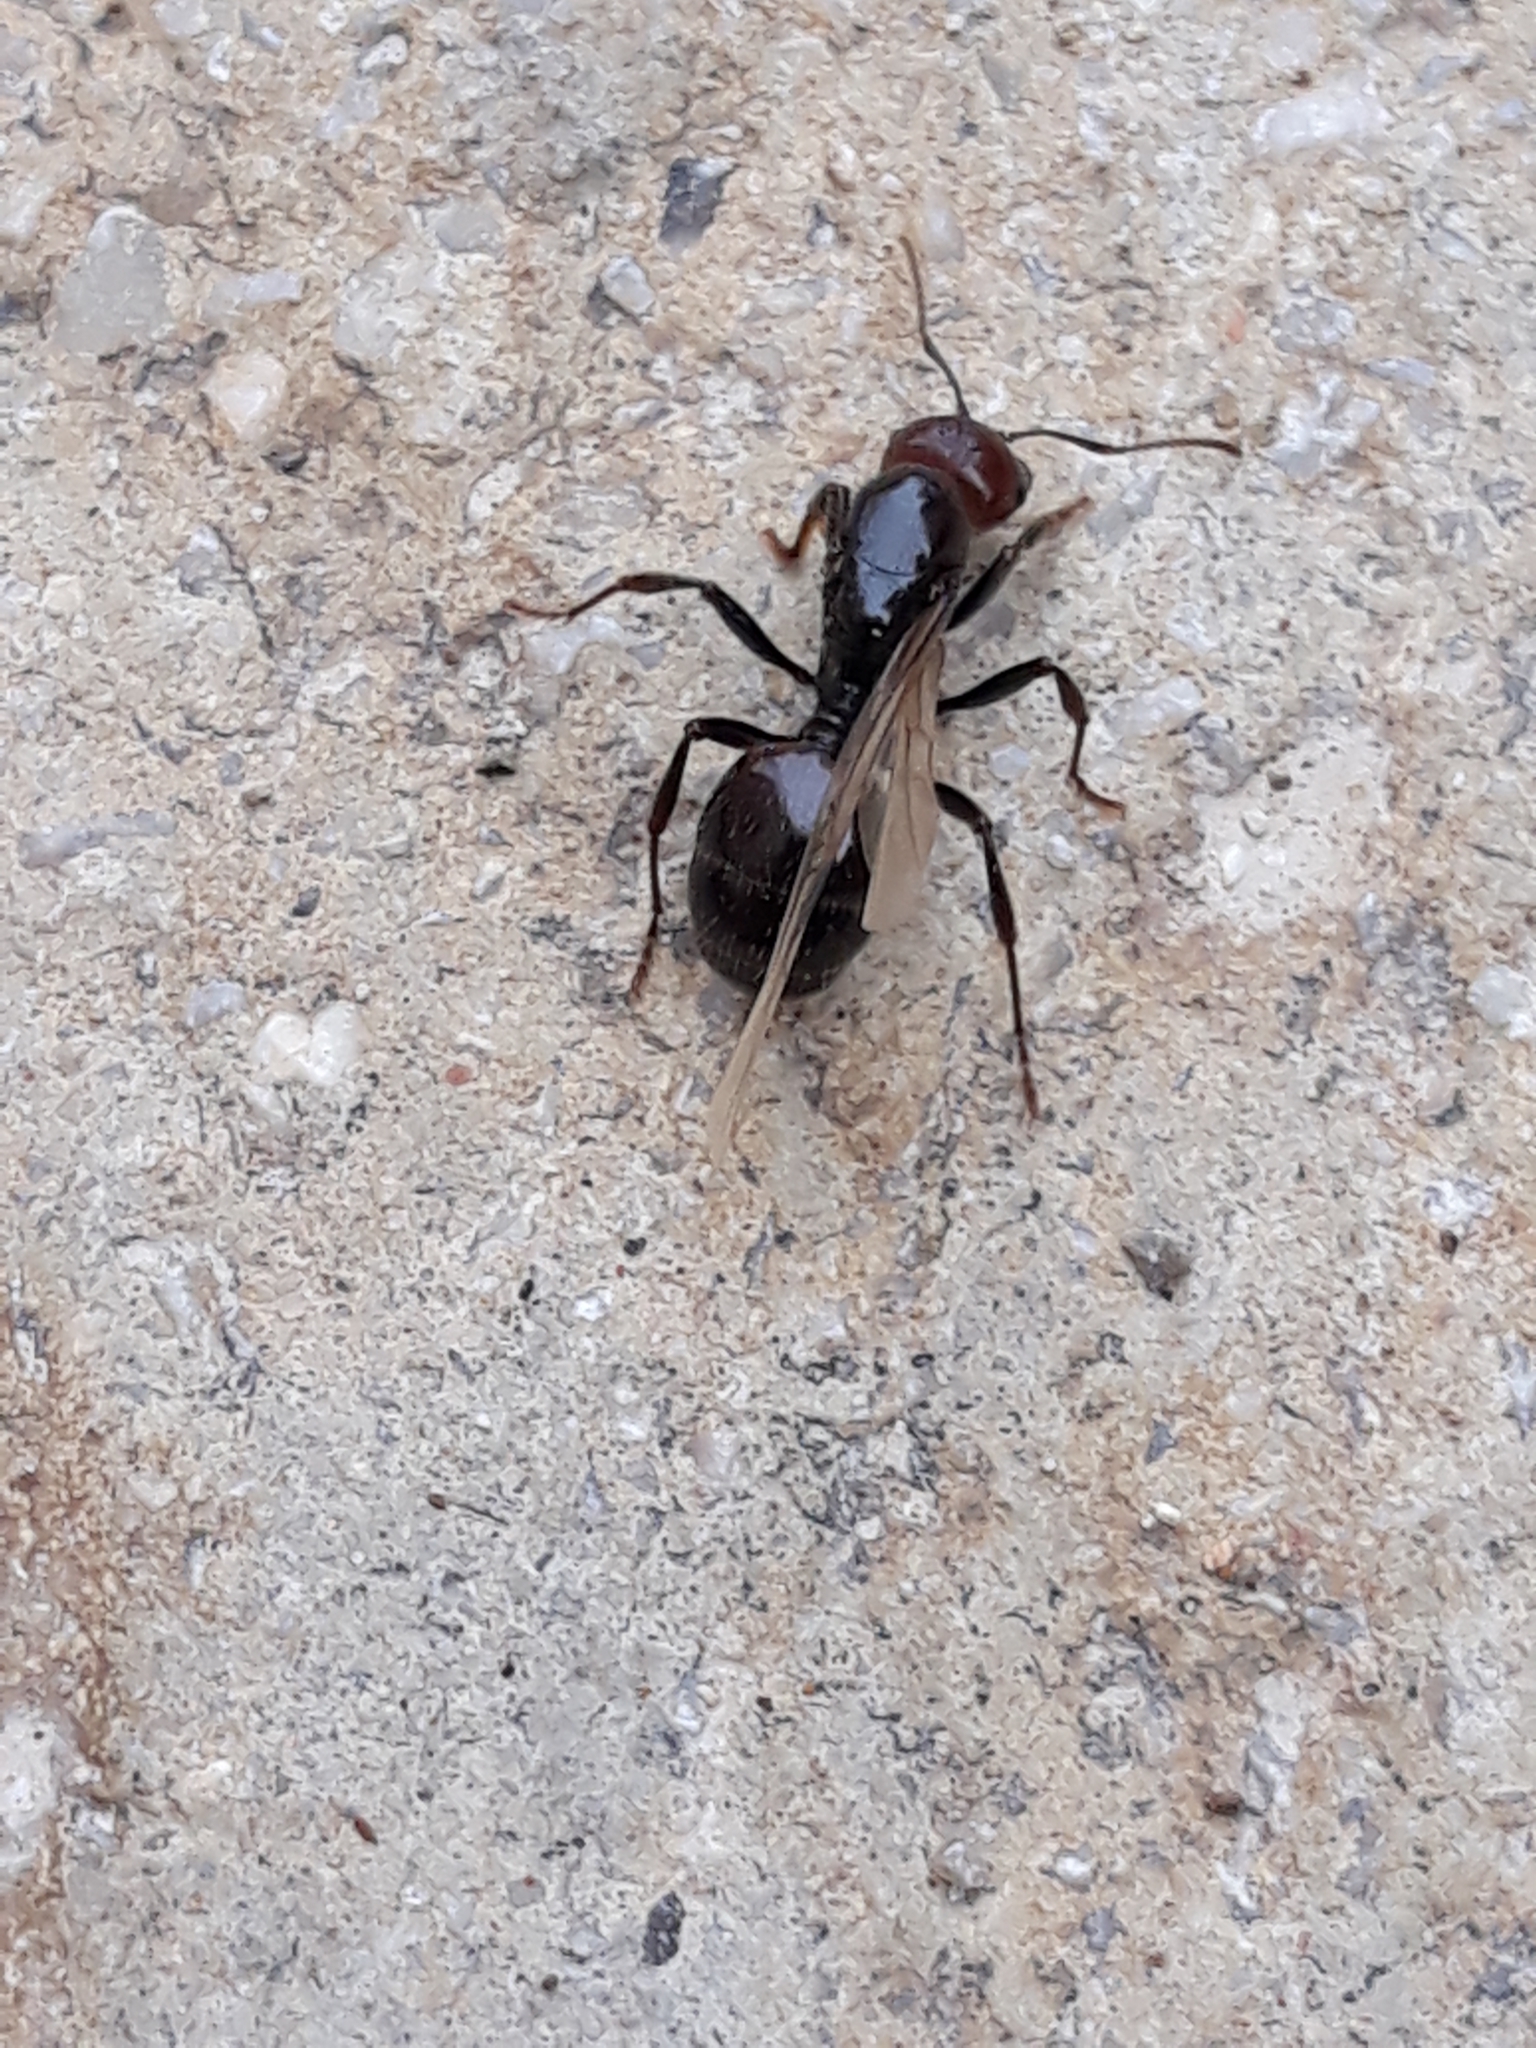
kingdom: Animalia
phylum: Arthropoda
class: Insecta
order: Hymenoptera
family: Formicidae
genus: Messor
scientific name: Messor barbarus
